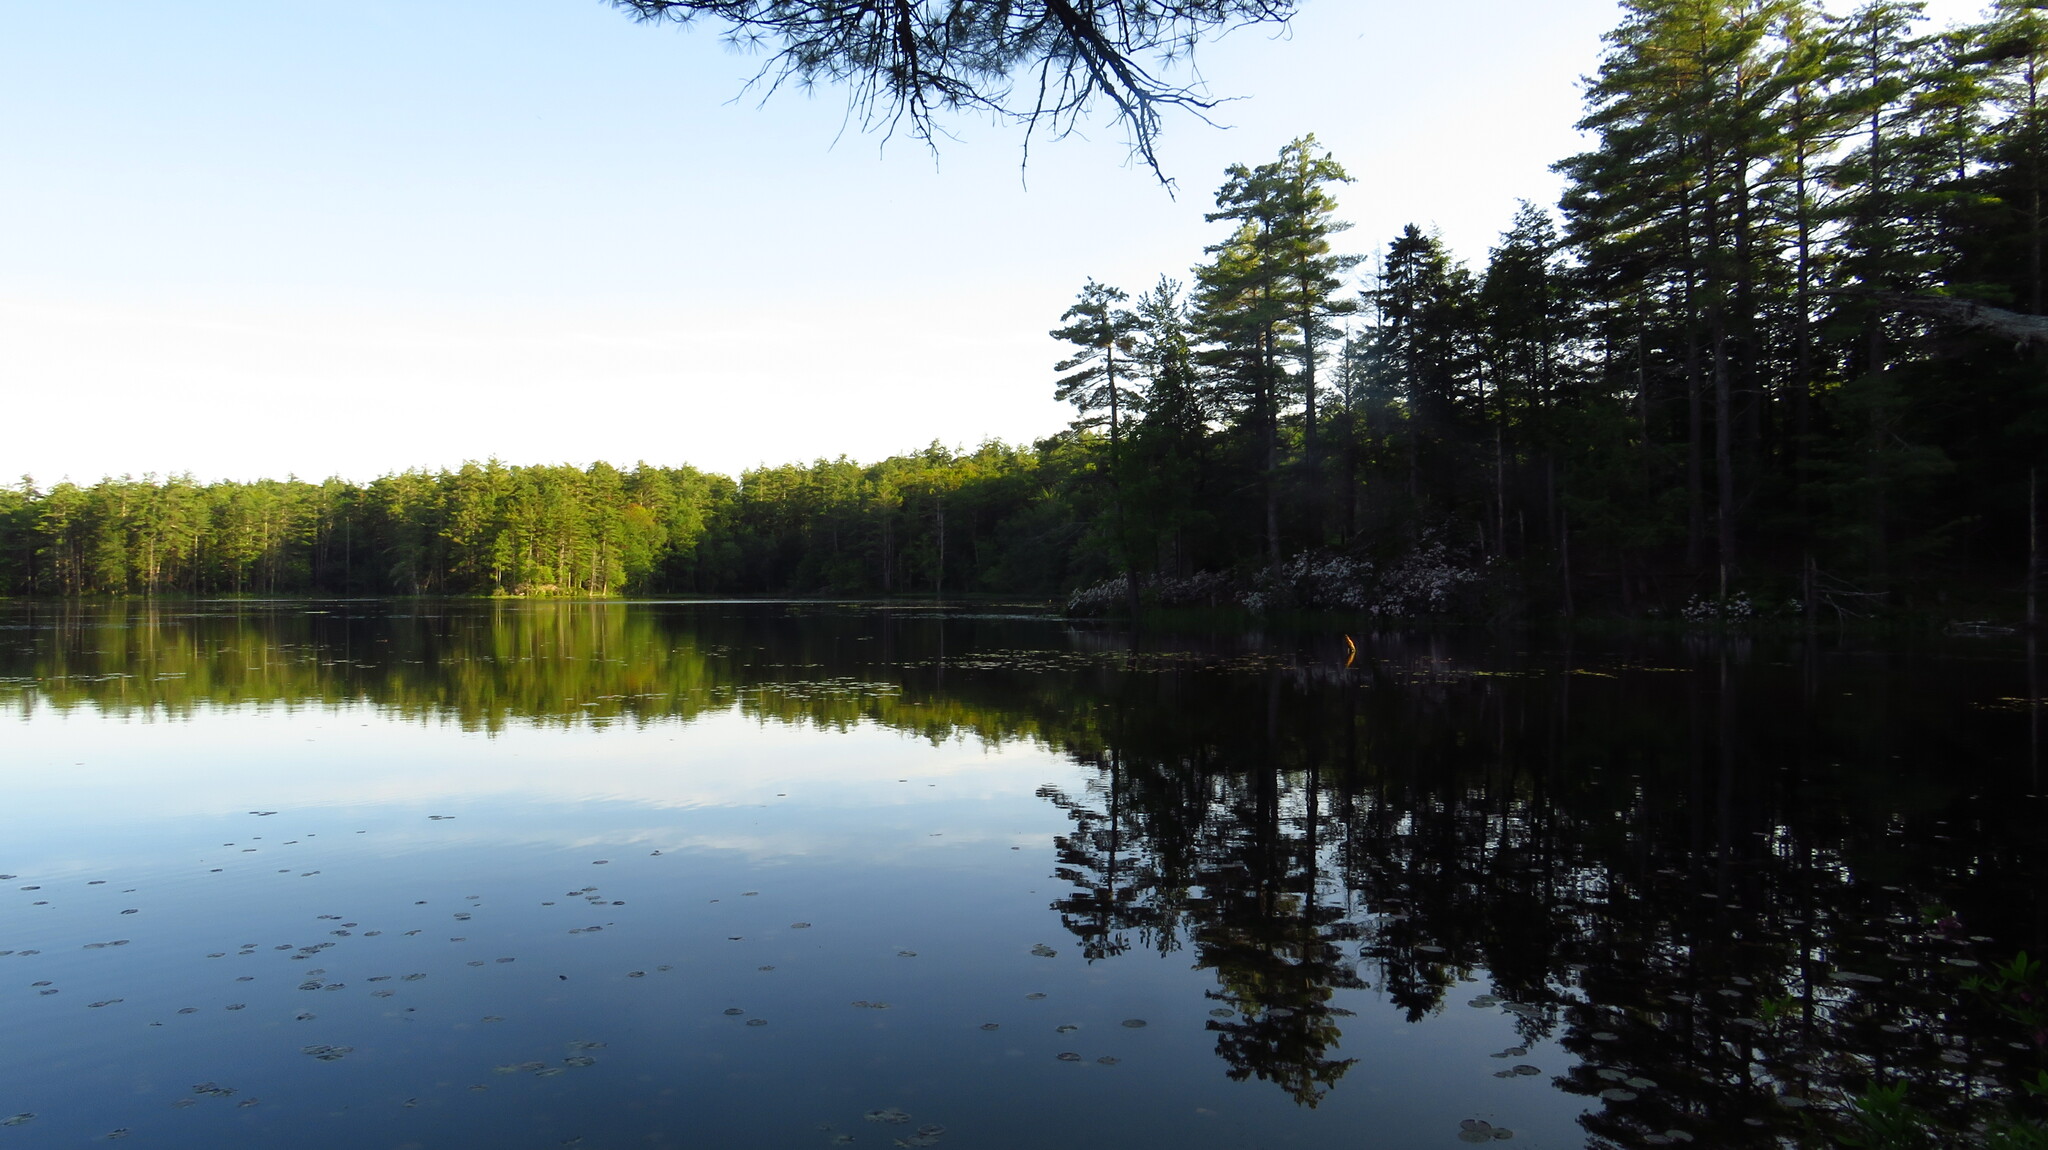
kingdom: Plantae
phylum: Tracheophyta
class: Pinopsida
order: Pinales
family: Pinaceae
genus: Pinus
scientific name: Pinus strobus
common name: Weymouth pine
